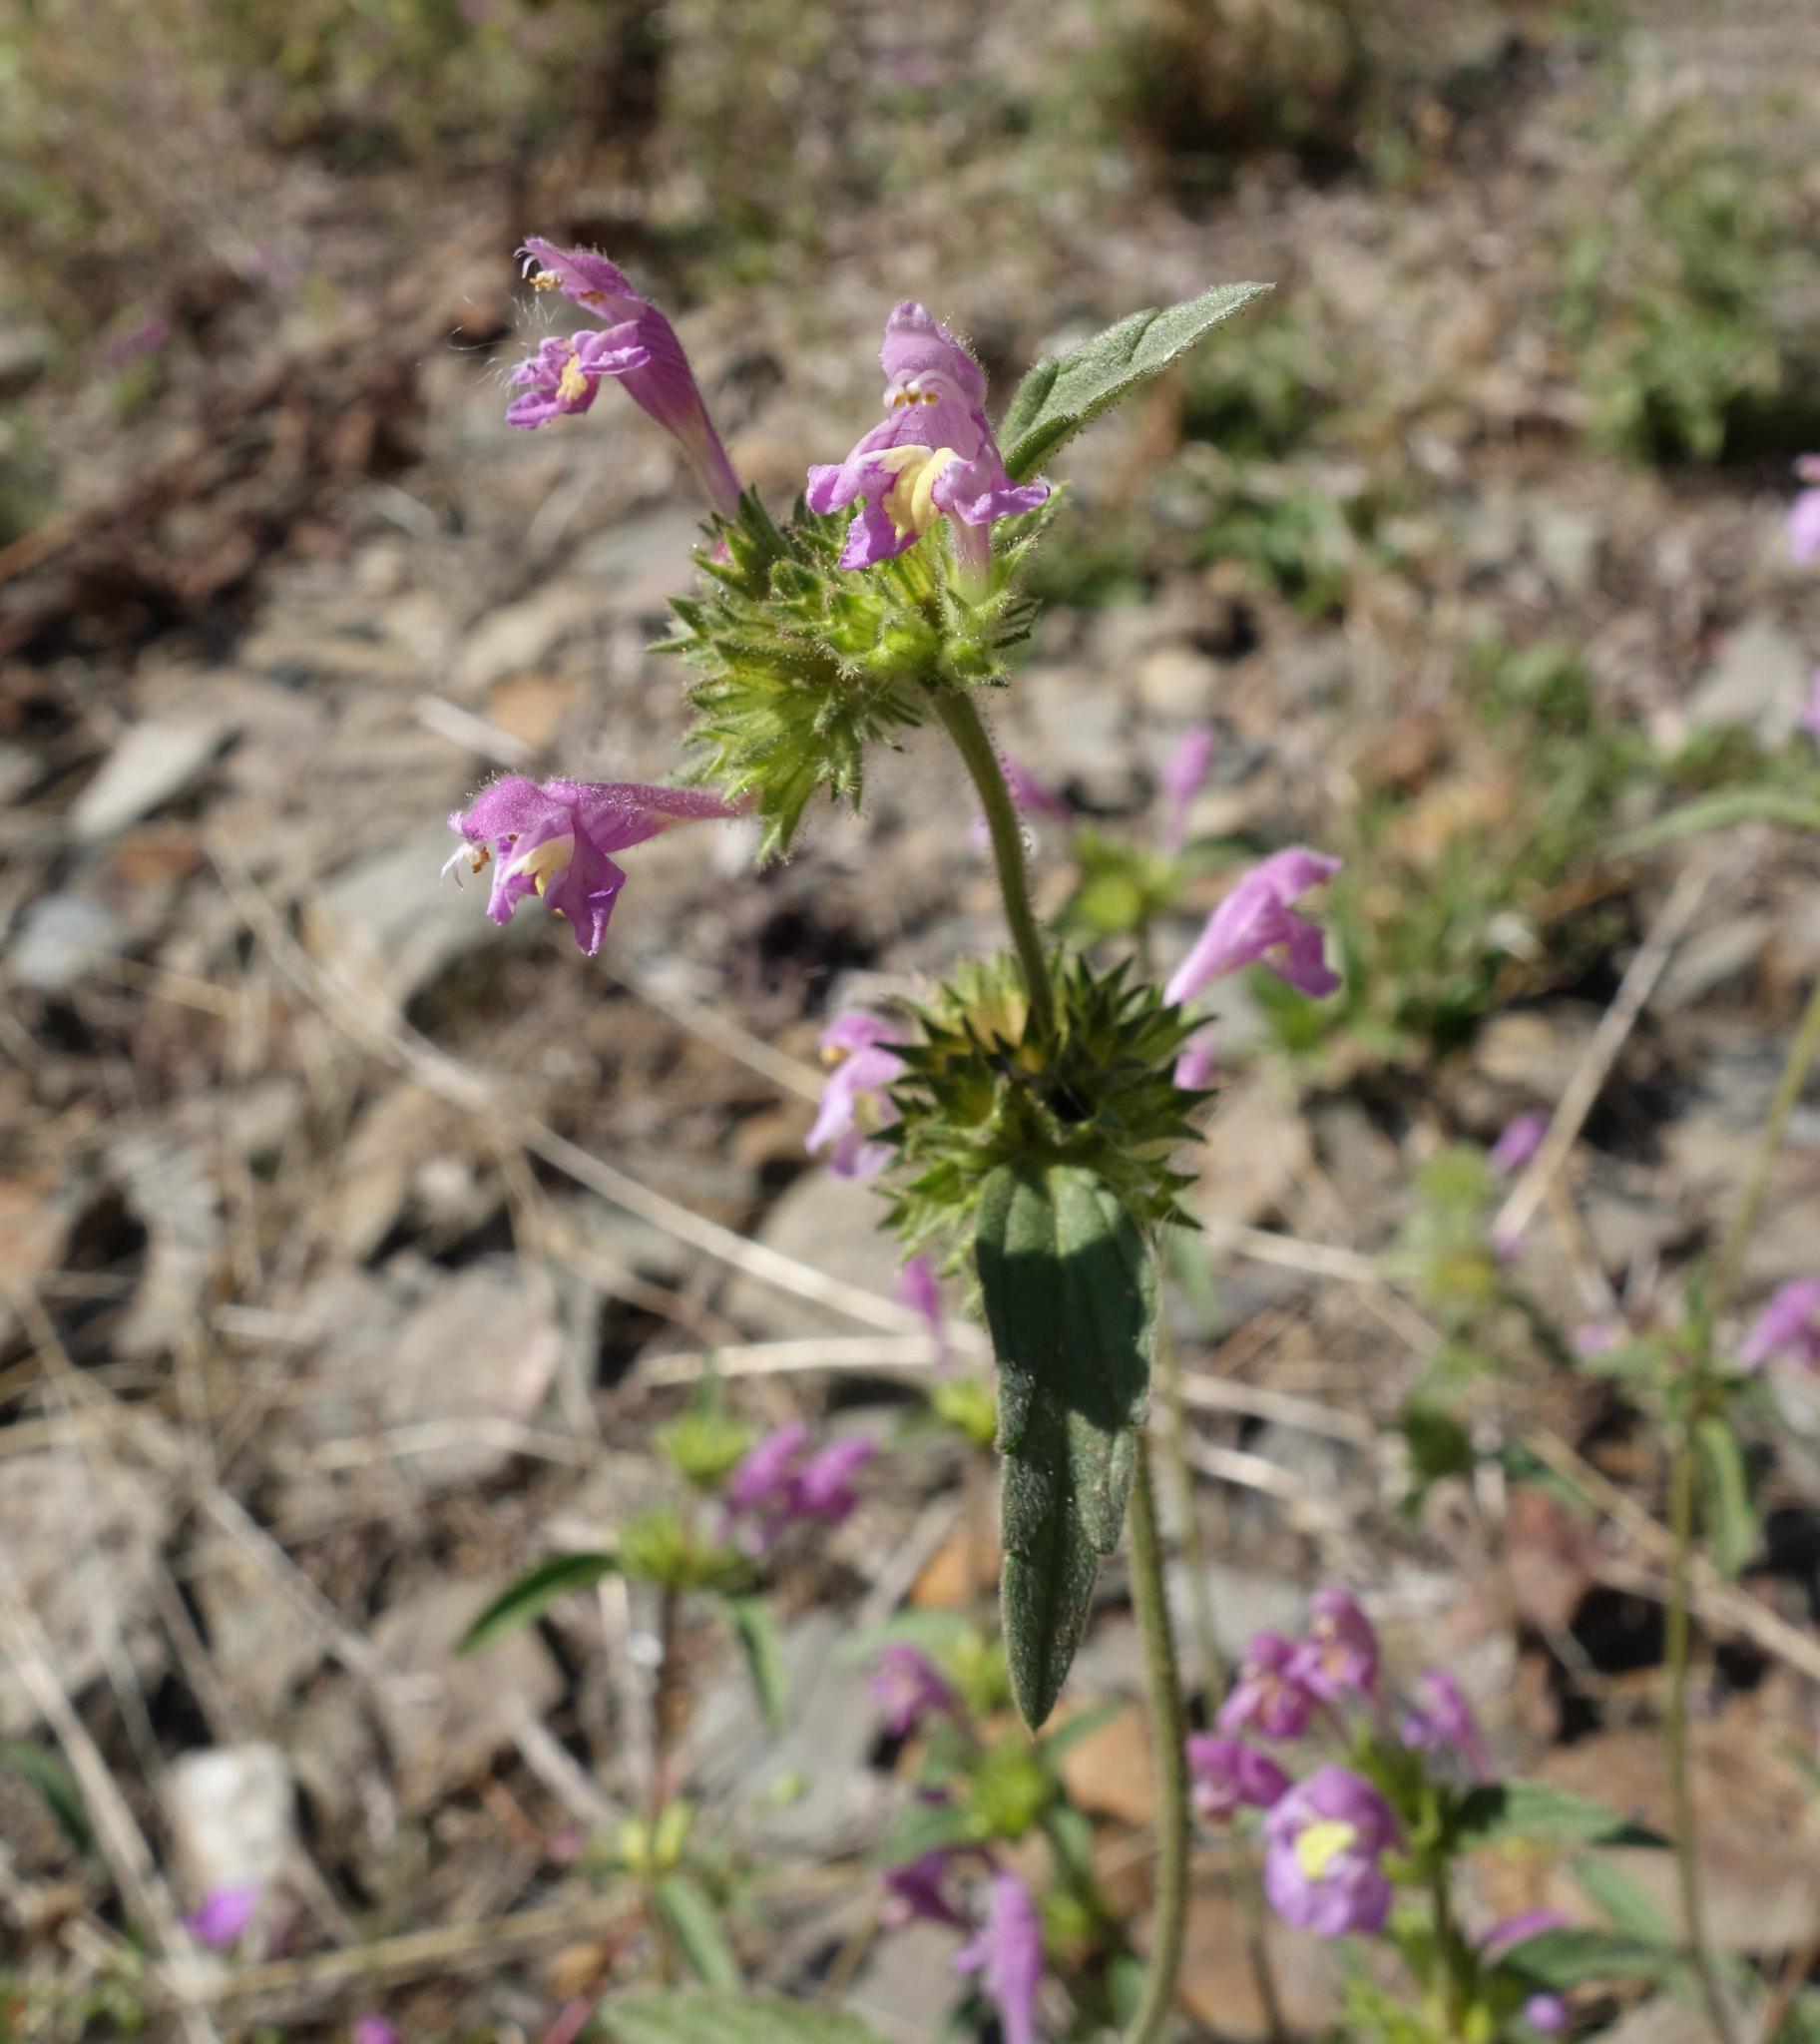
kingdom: Plantae
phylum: Tracheophyta
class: Magnoliopsida
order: Lamiales
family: Lamiaceae
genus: Galeopsis
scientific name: Galeopsis angustifolia
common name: Red hemp-nettle
